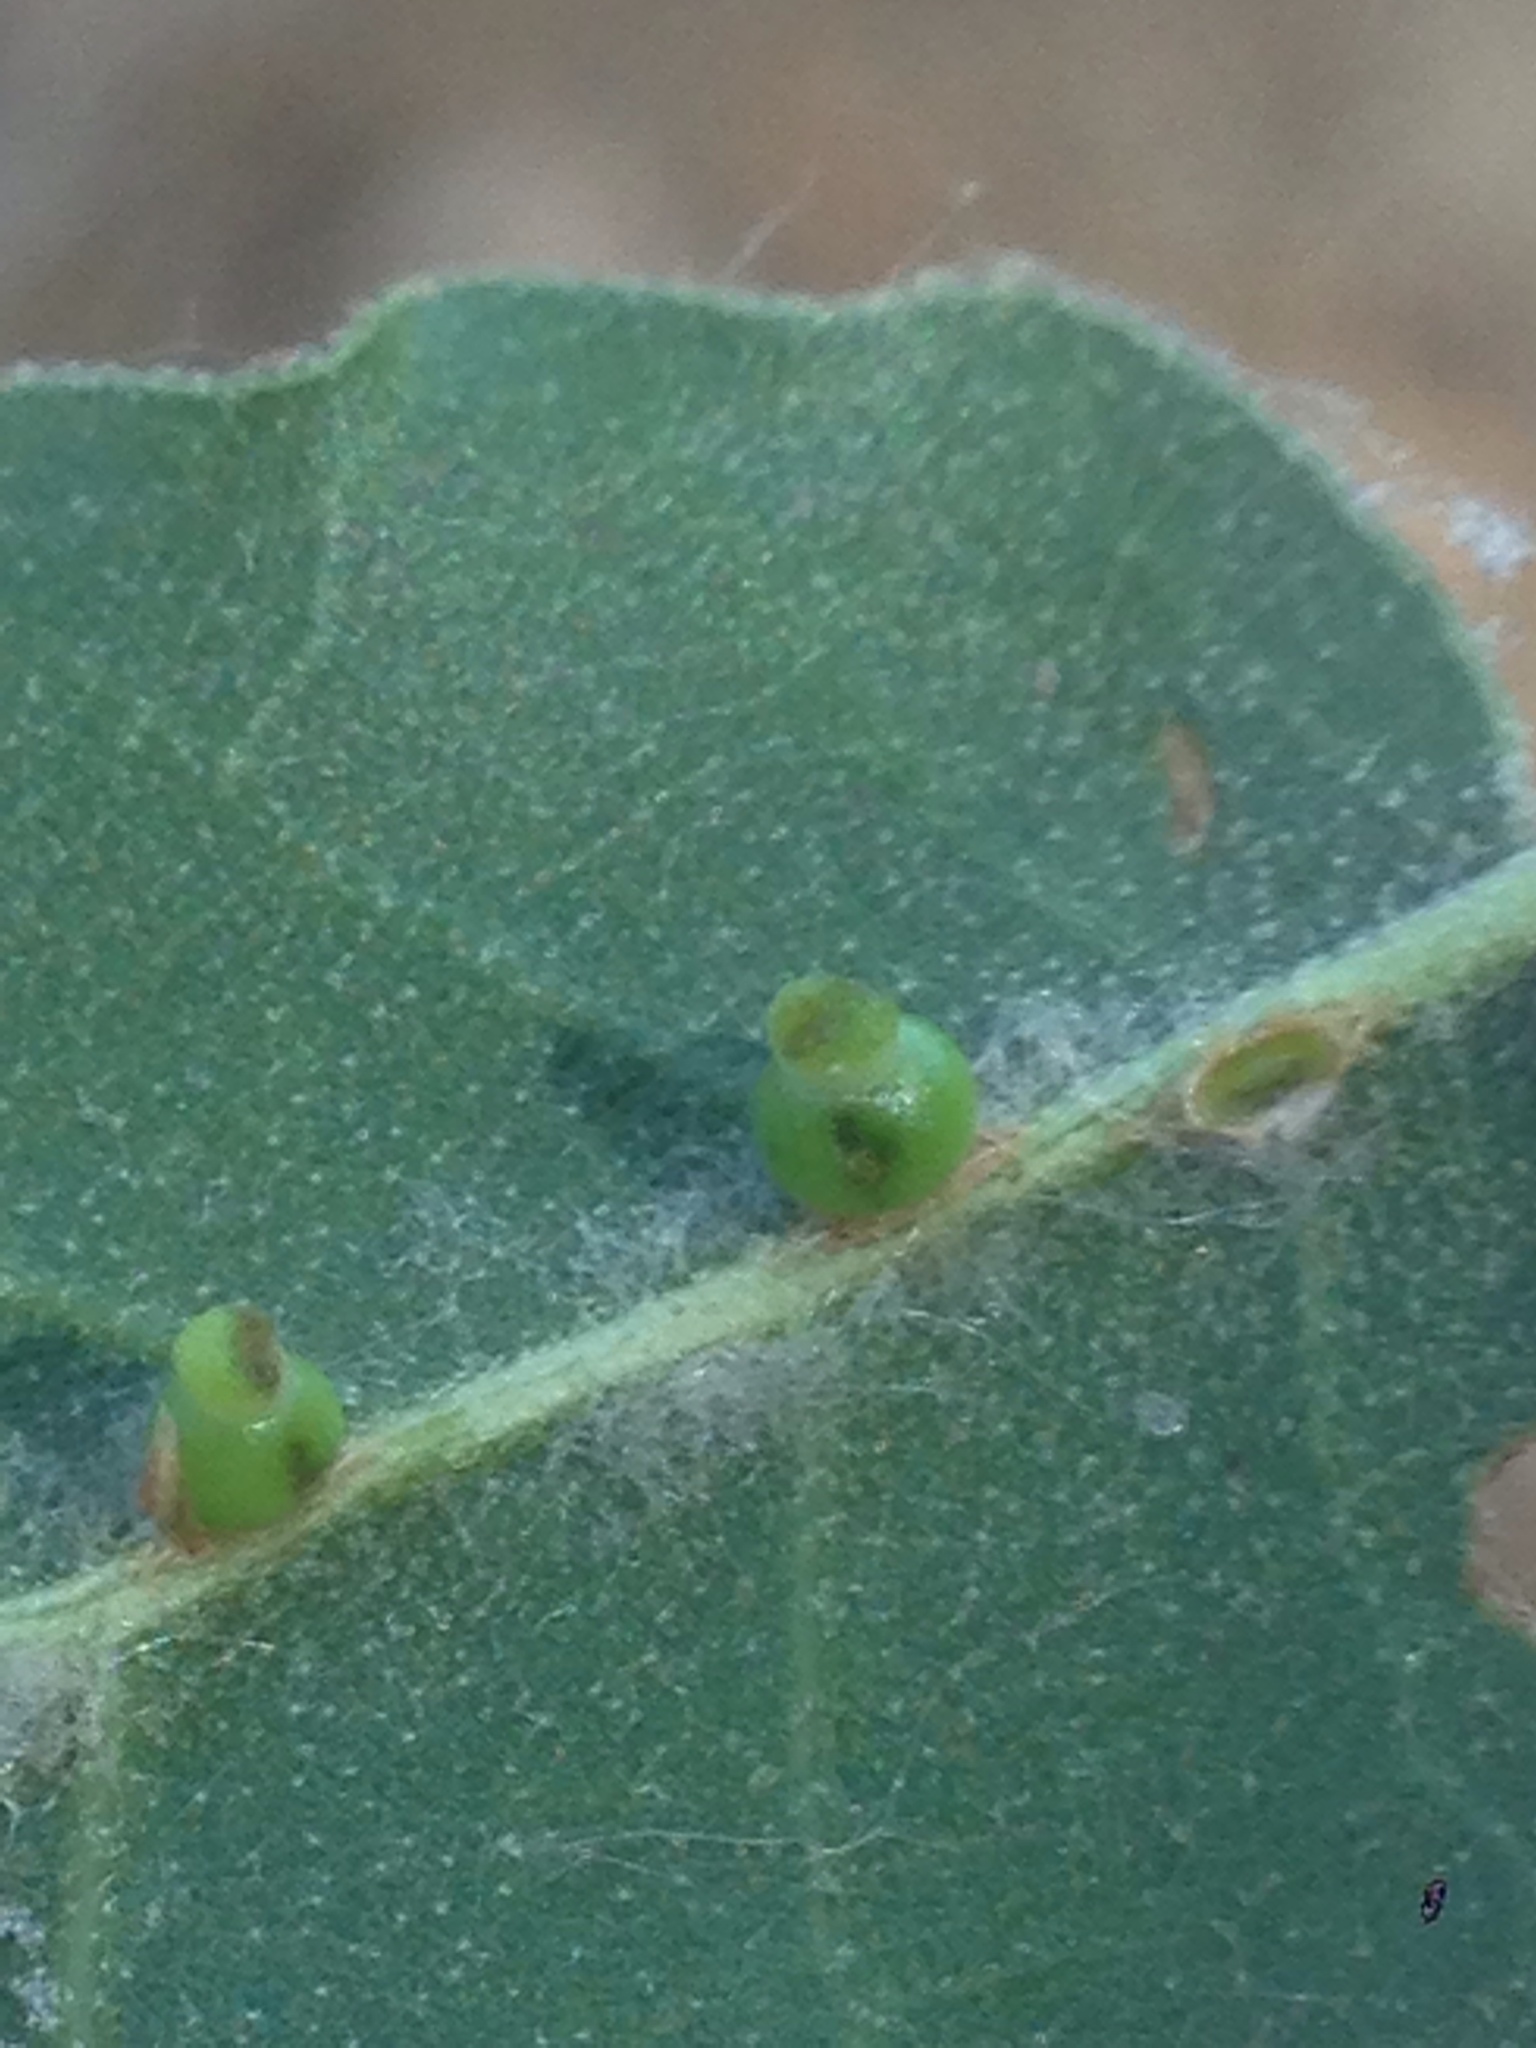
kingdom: Animalia
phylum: Arthropoda
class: Insecta
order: Hymenoptera
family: Cynipidae
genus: Callirhytis
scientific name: Callirhytis
